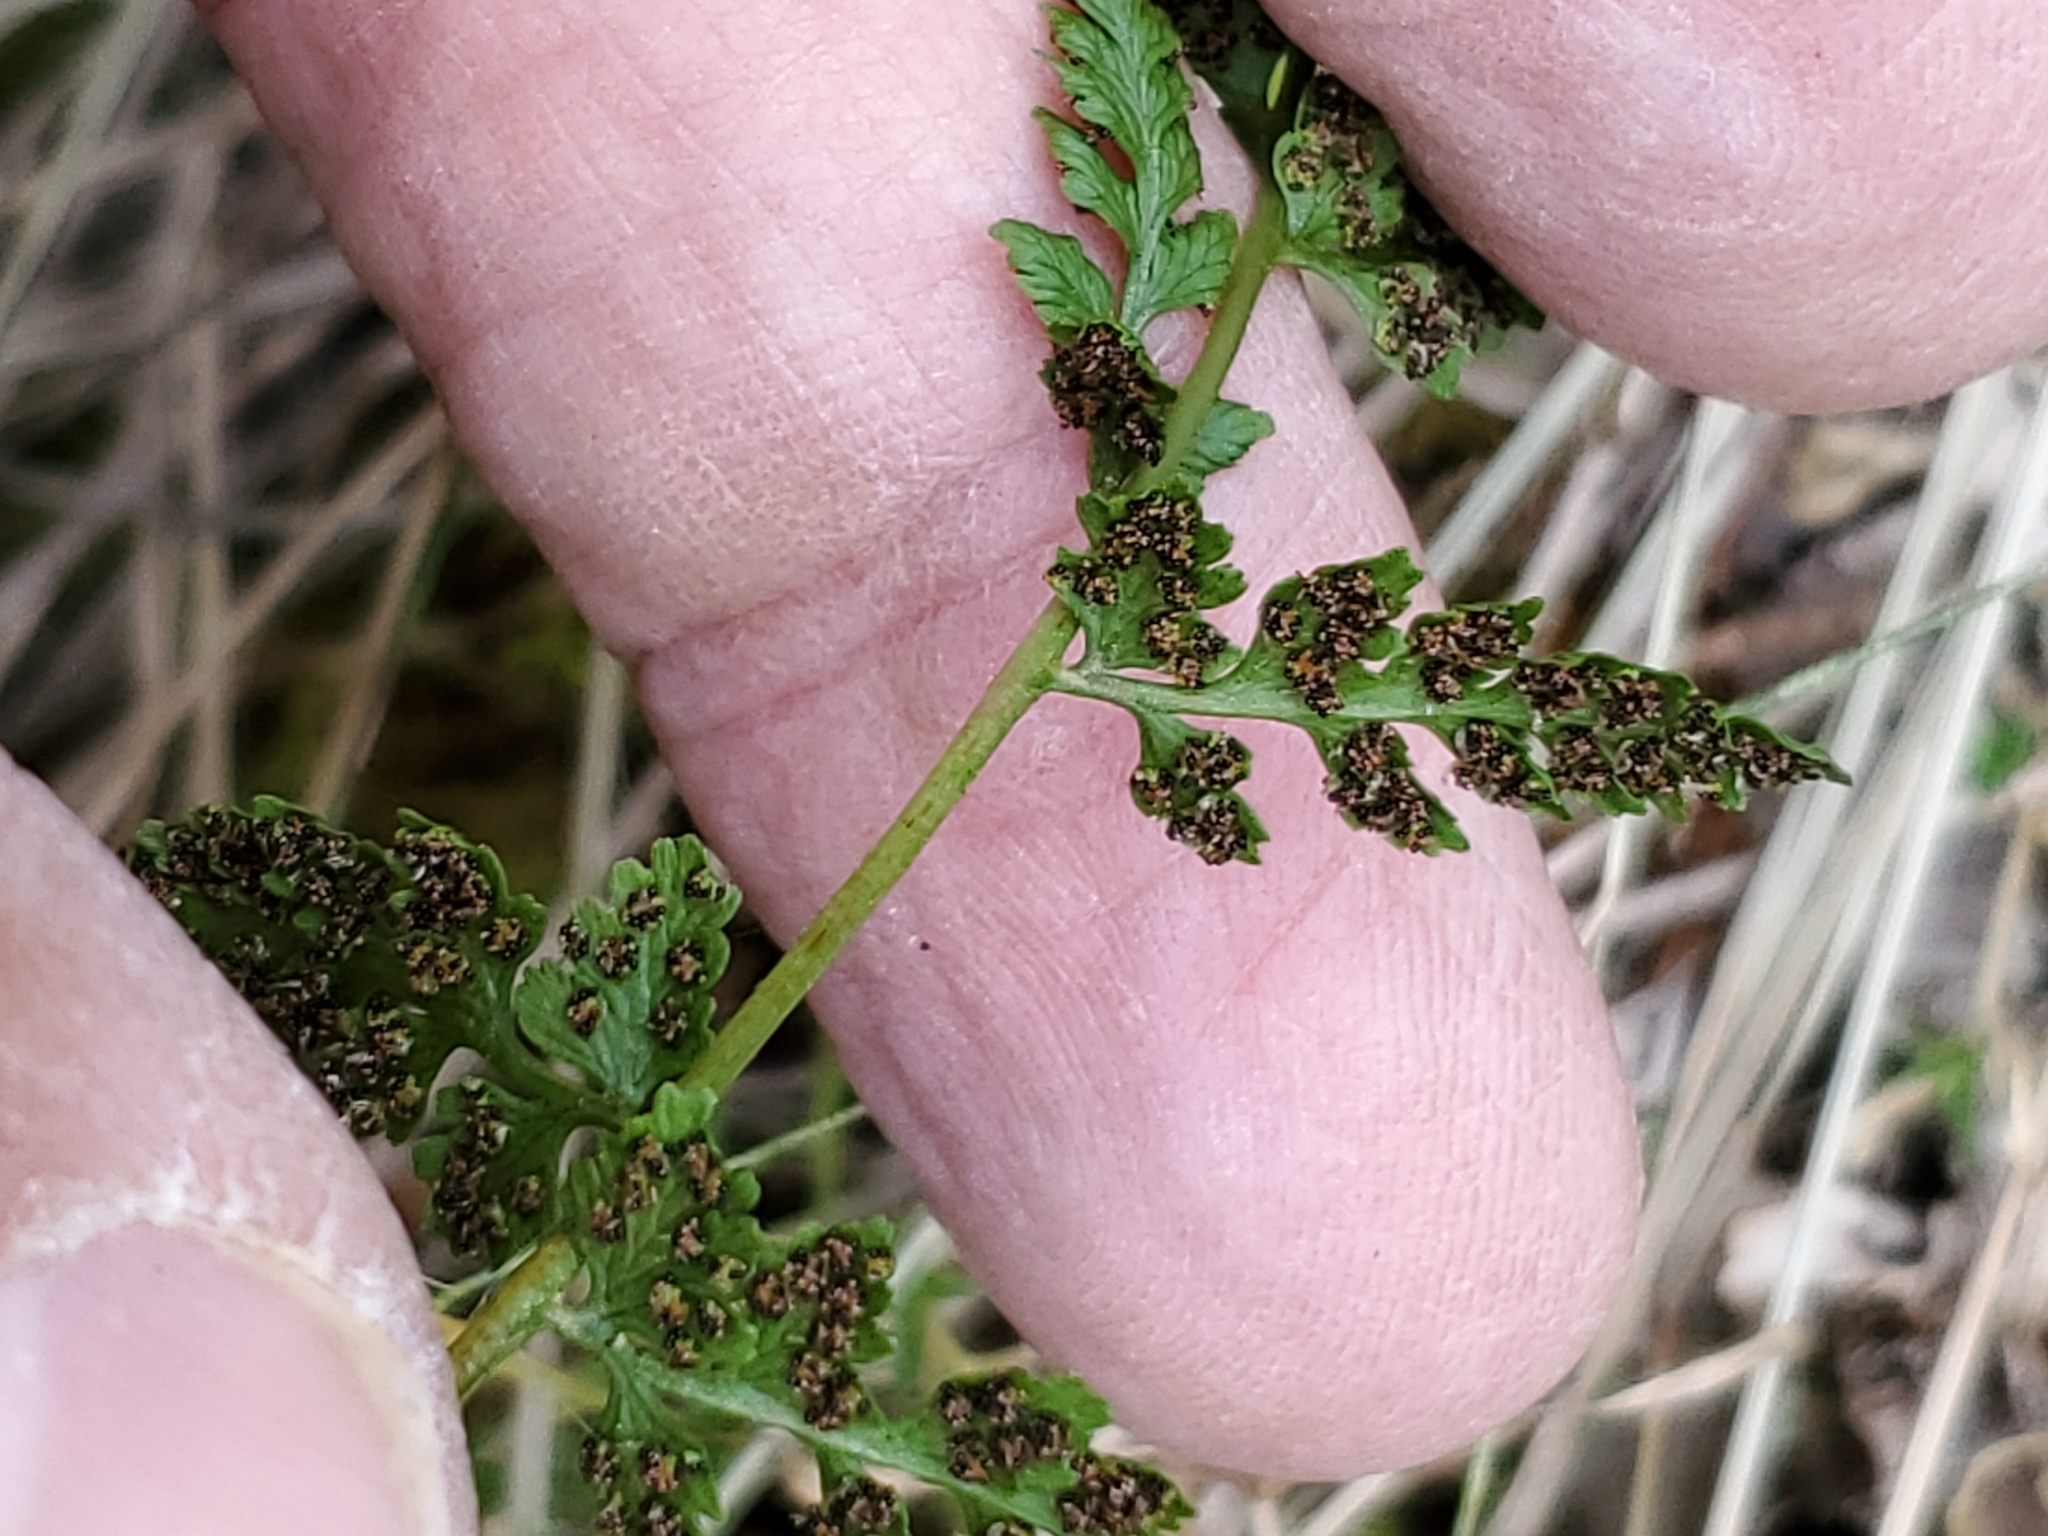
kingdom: Plantae
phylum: Tracheophyta
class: Polypodiopsida
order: Polypodiales
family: Cystopteridaceae
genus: Cystopteris
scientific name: Cystopteris fragilis
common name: Brittle bladder fern
